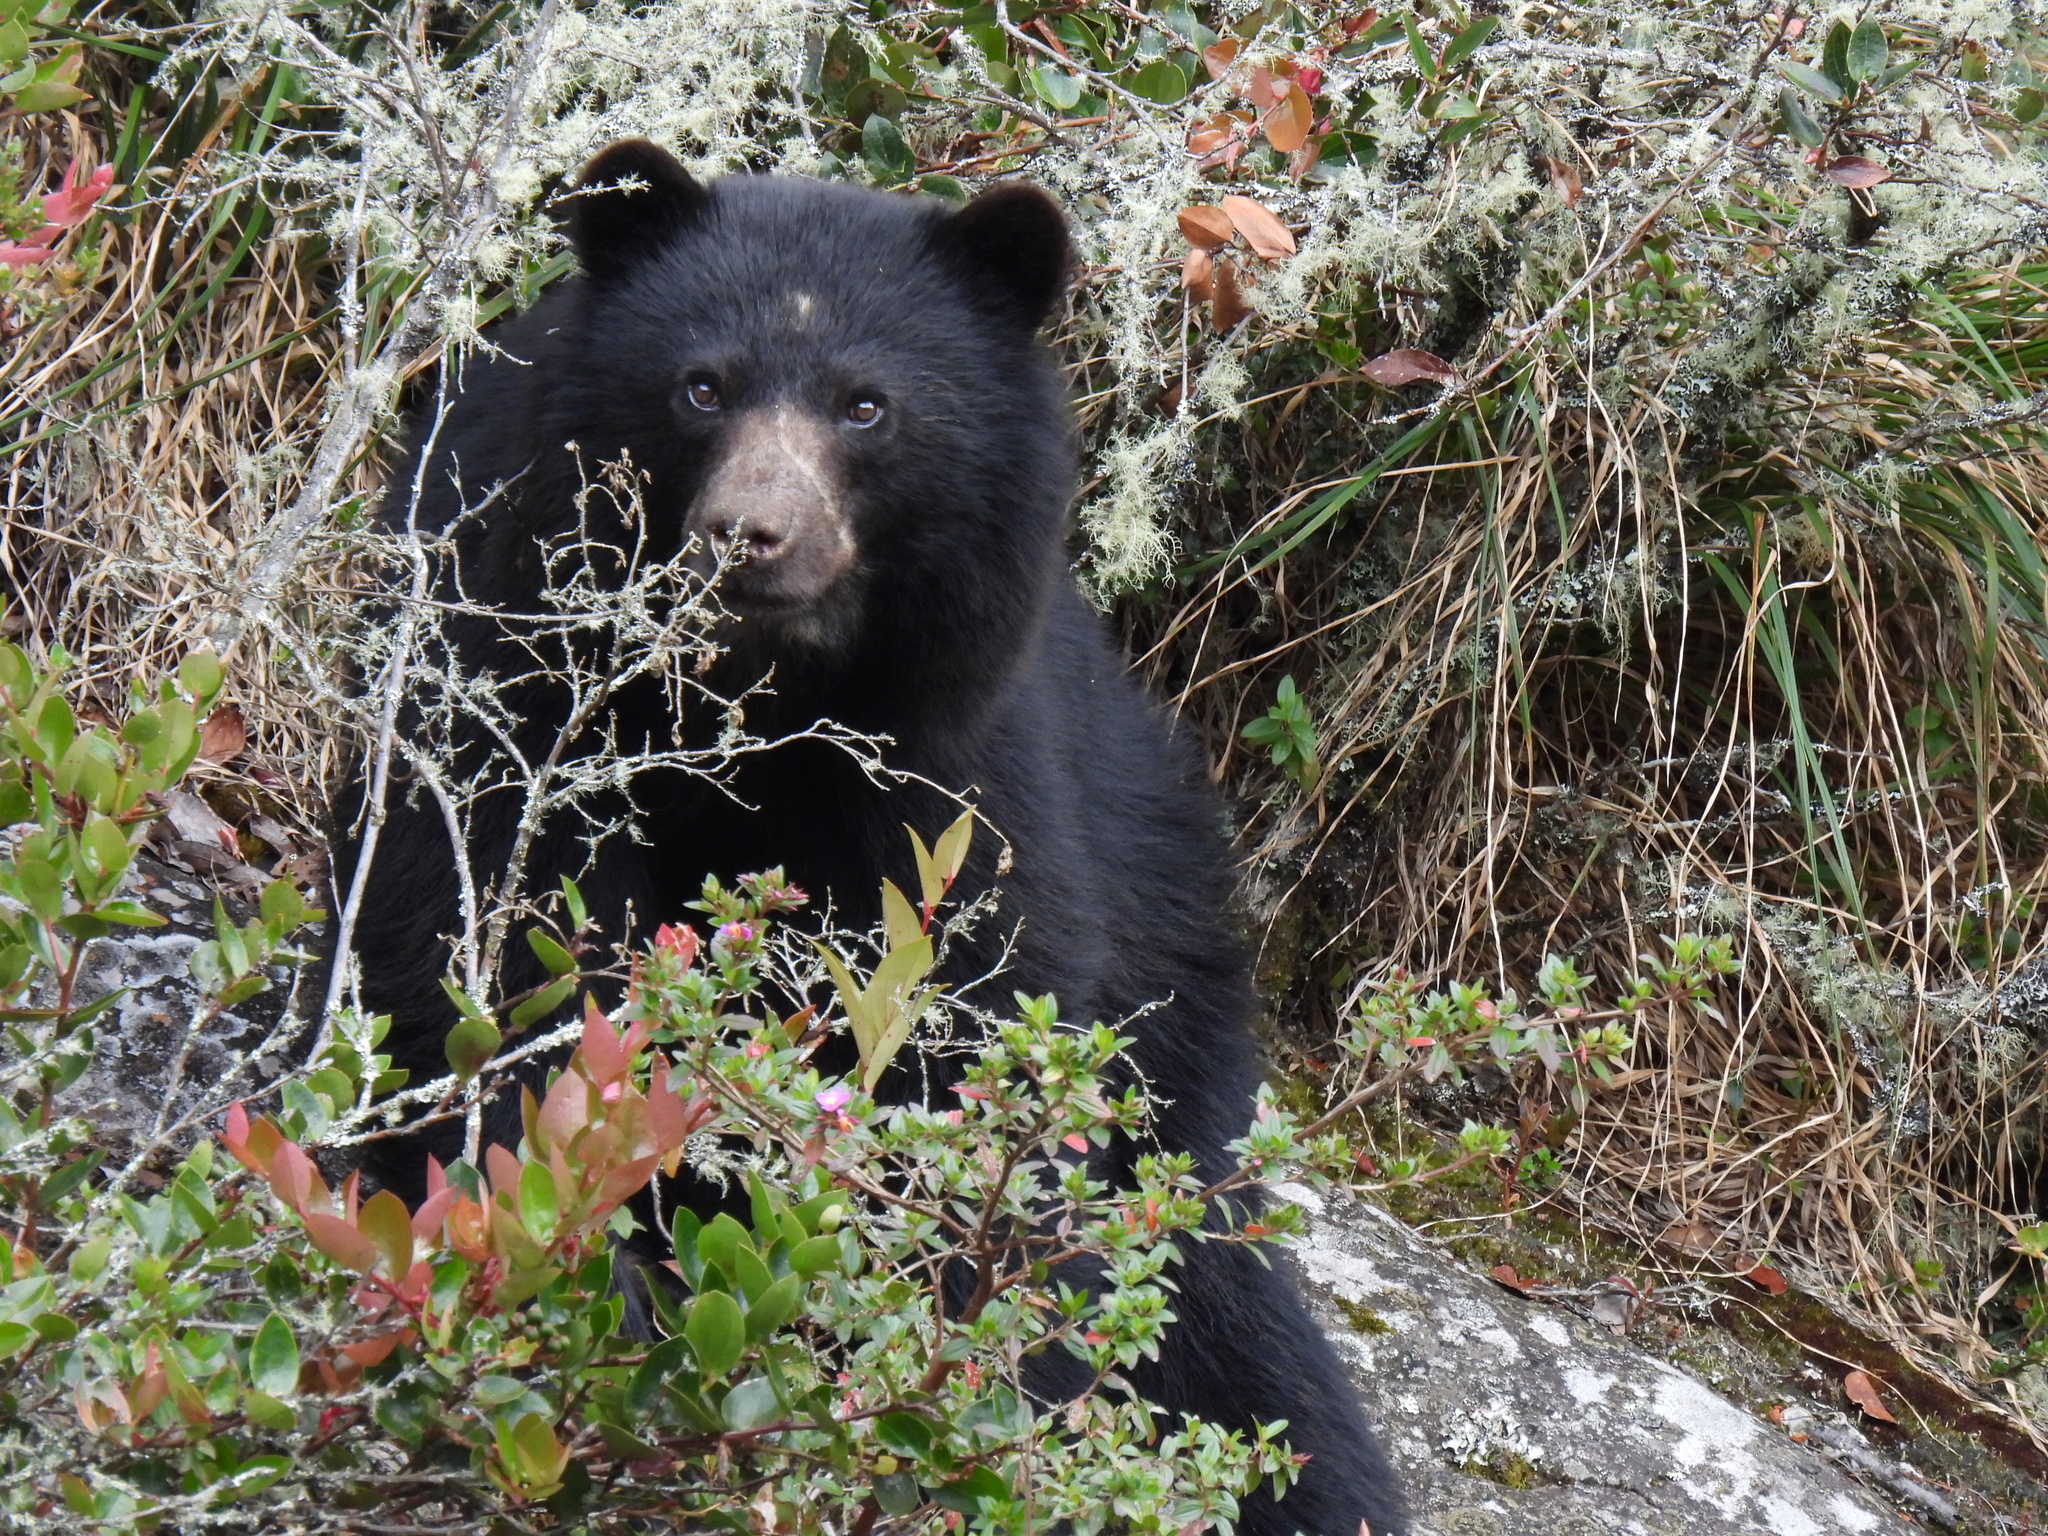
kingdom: Animalia
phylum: Chordata
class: Mammalia
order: Carnivora
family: Ursidae
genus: Tremarctos
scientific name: Tremarctos ornatus
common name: Spectacled bear
